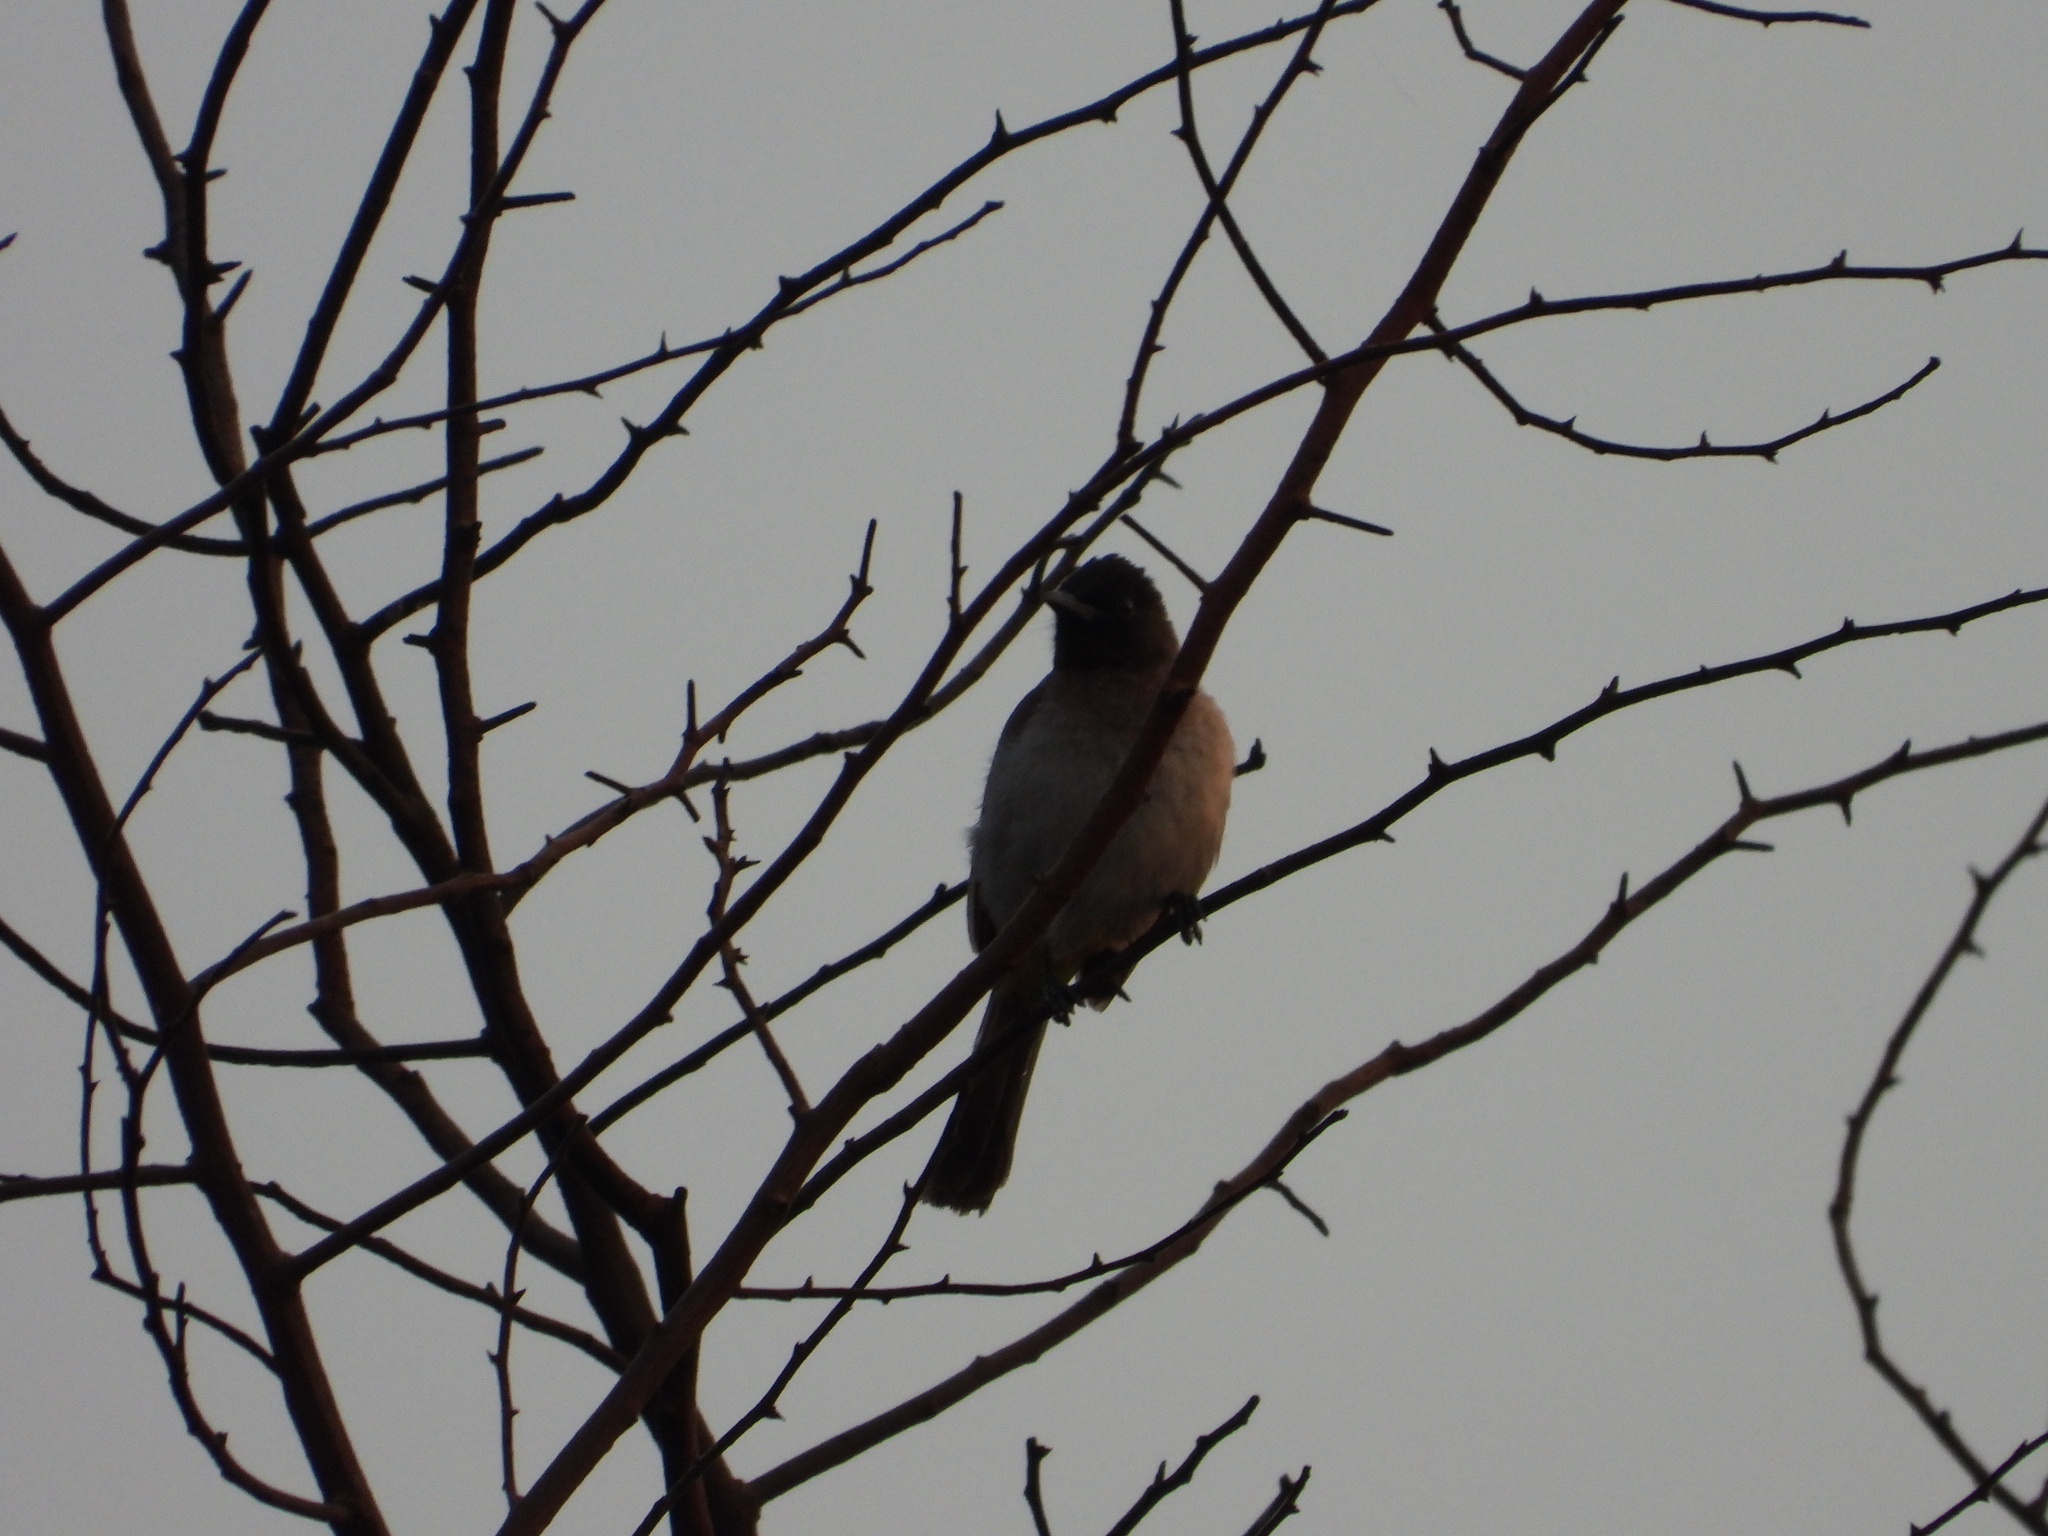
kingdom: Animalia
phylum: Chordata
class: Aves
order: Passeriformes
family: Pycnonotidae
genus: Pycnonotus
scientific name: Pycnonotus barbatus
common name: Common bulbul
